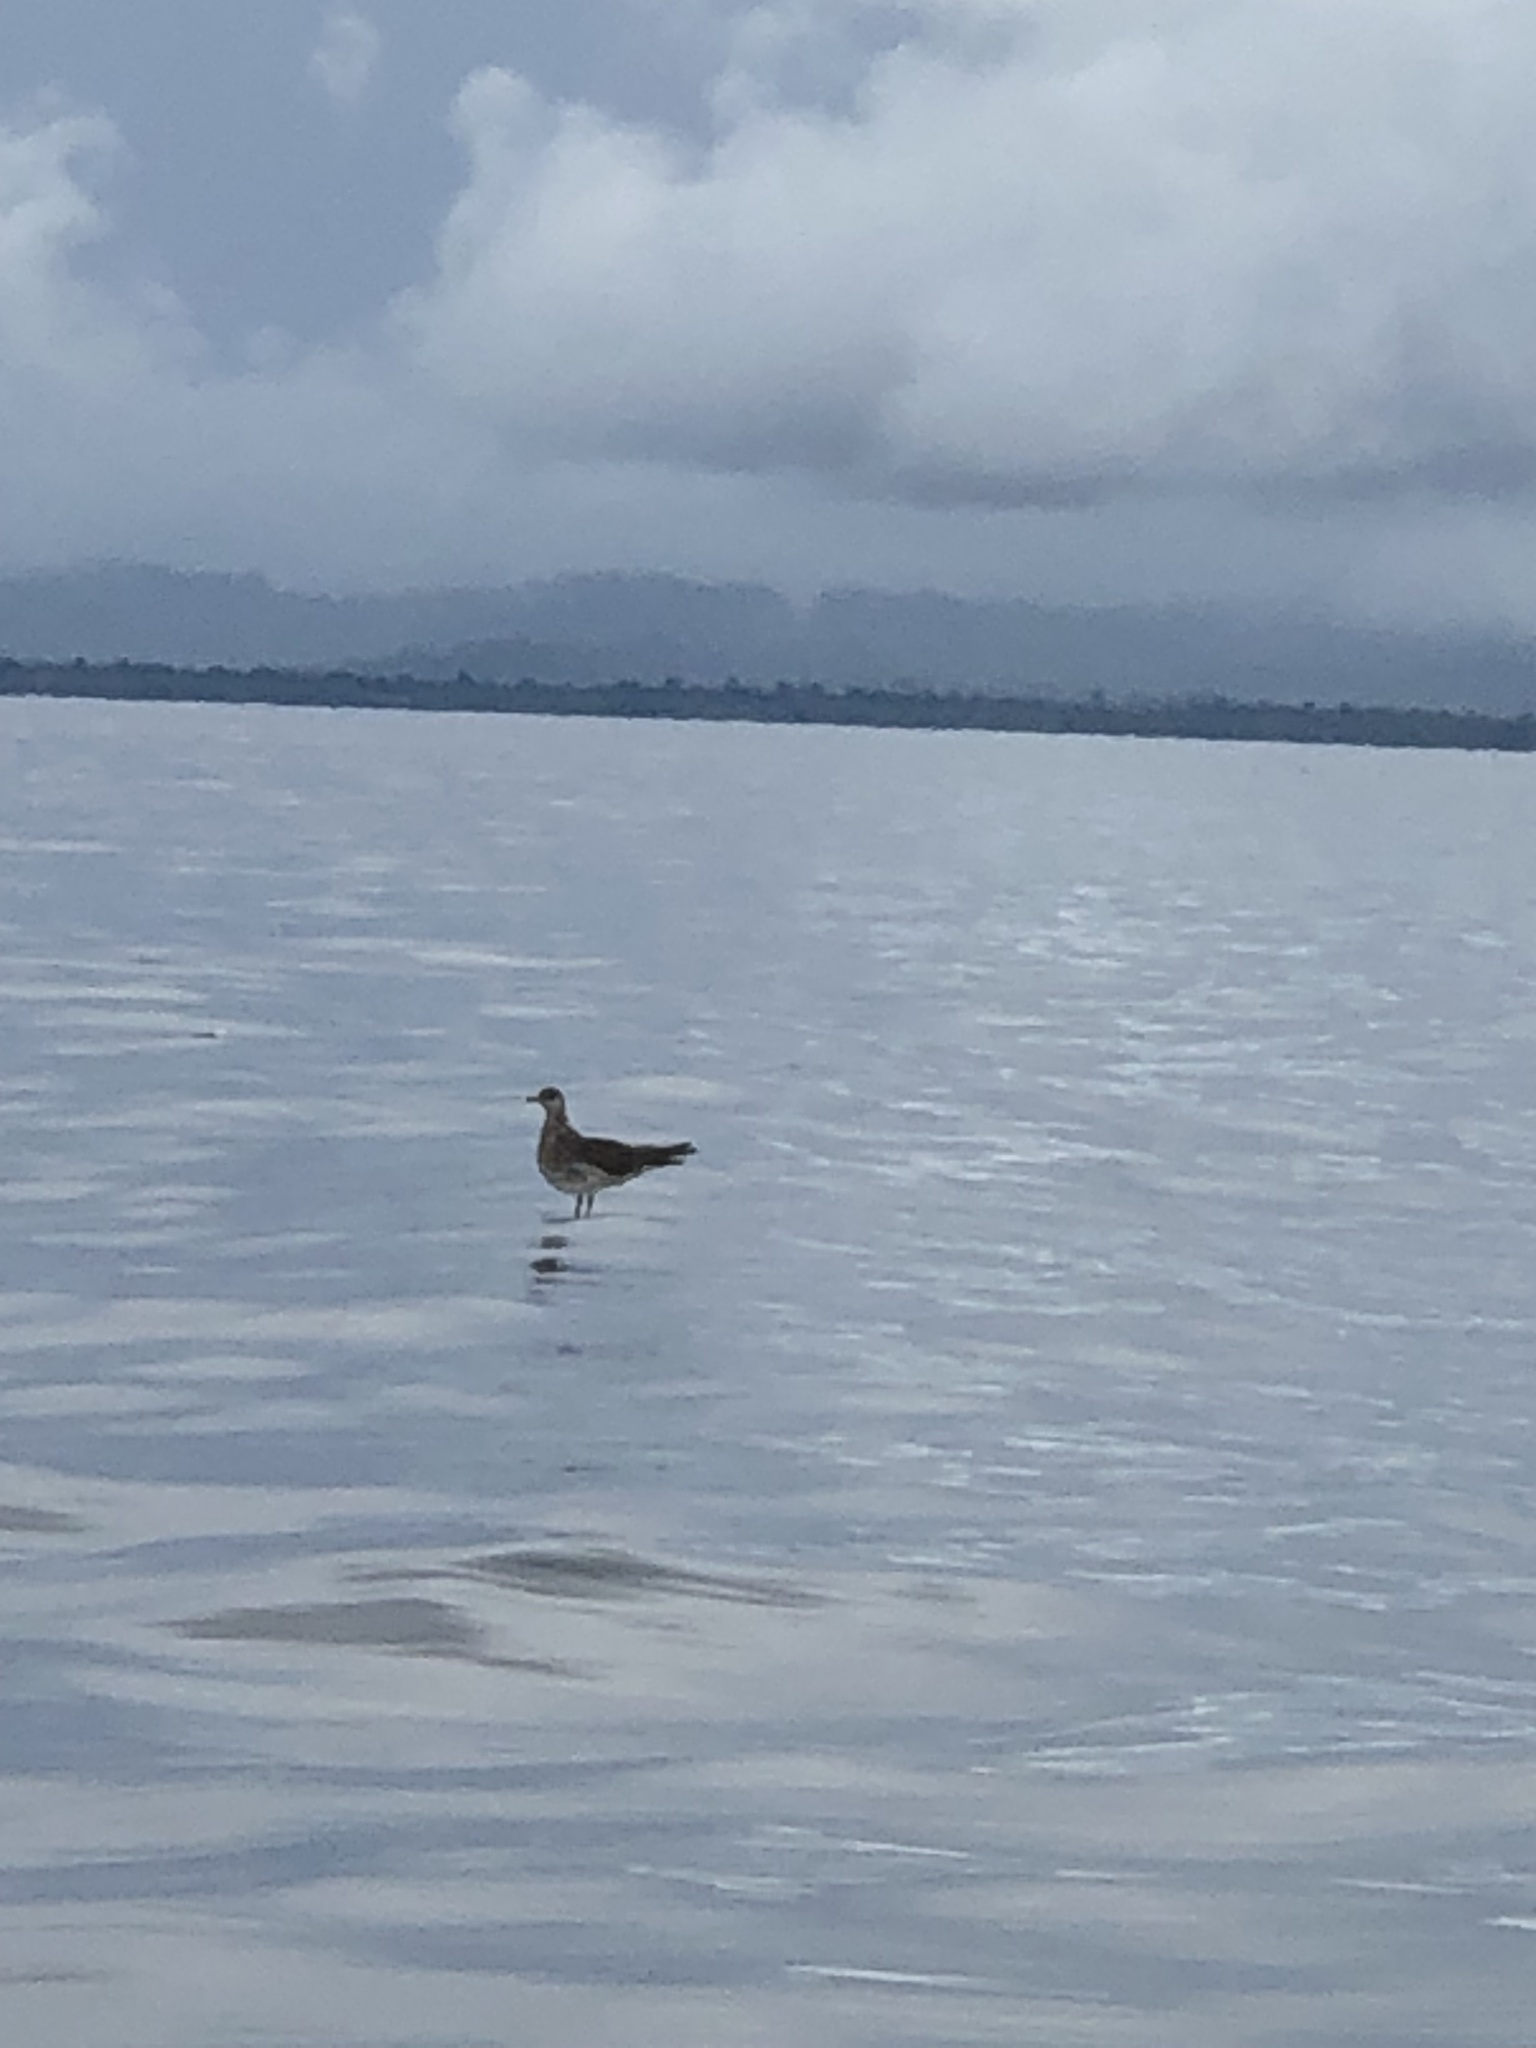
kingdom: Animalia
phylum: Chordata
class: Aves
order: Charadriiformes
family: Stercorariidae
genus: Stercorarius
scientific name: Stercorarius parasiticus
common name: Parasitic jaeger
